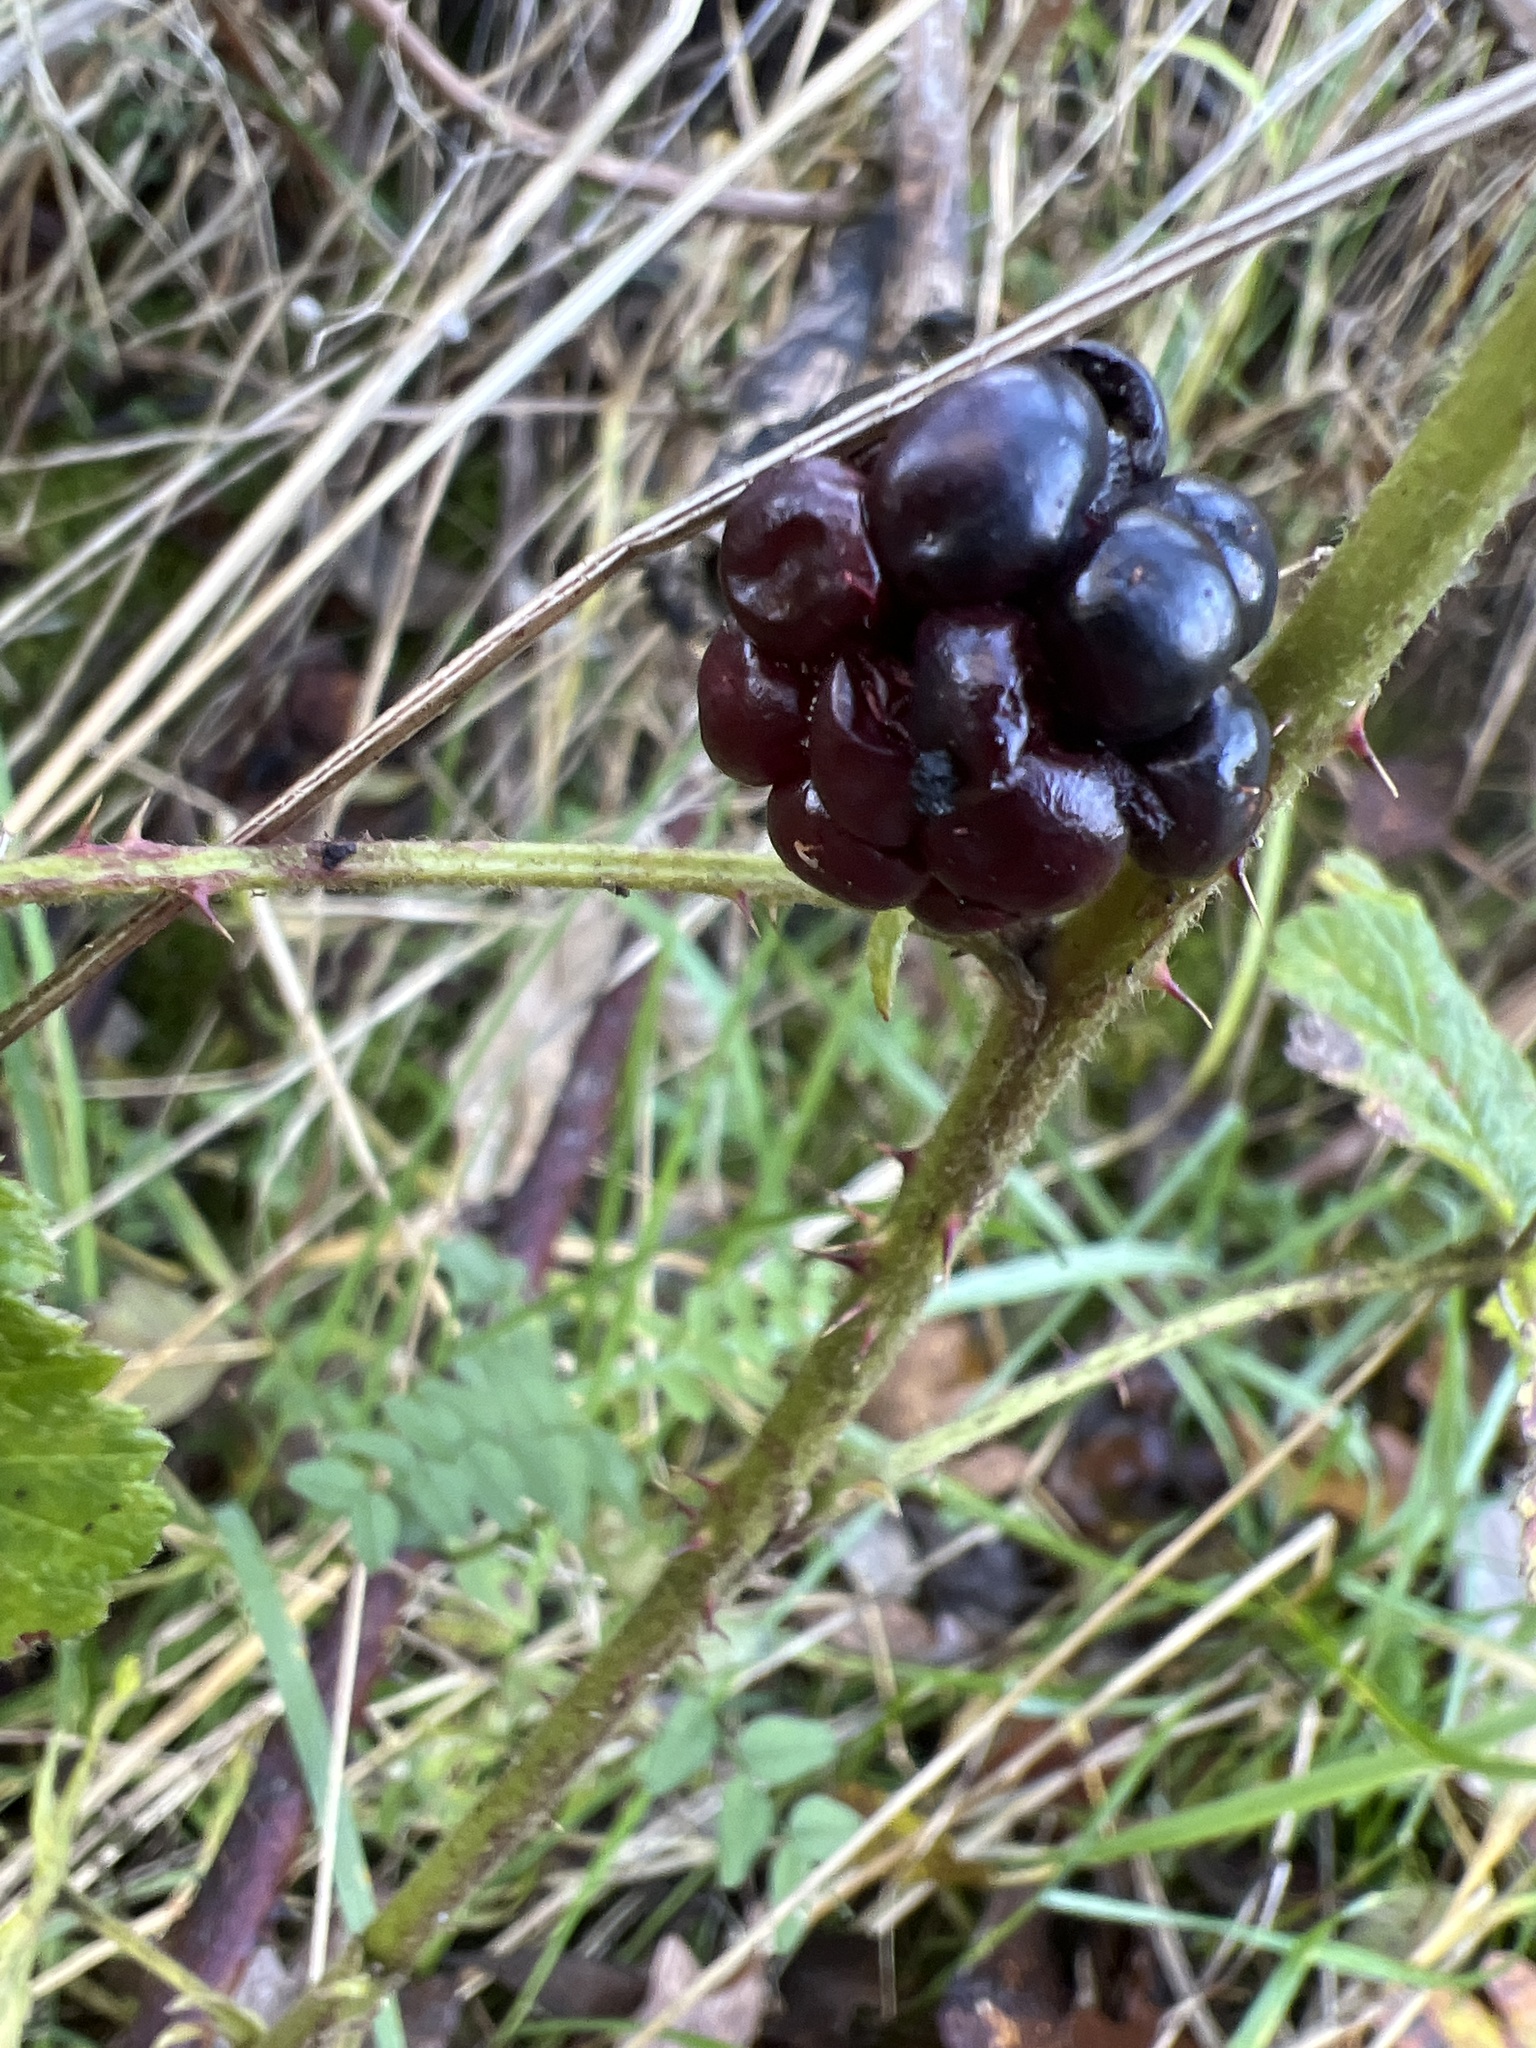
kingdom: Plantae
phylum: Tracheophyta
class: Magnoliopsida
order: Rosales
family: Rosaceae
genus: Rubus
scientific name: Rubus laciniatus
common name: Evergreen blackberry
